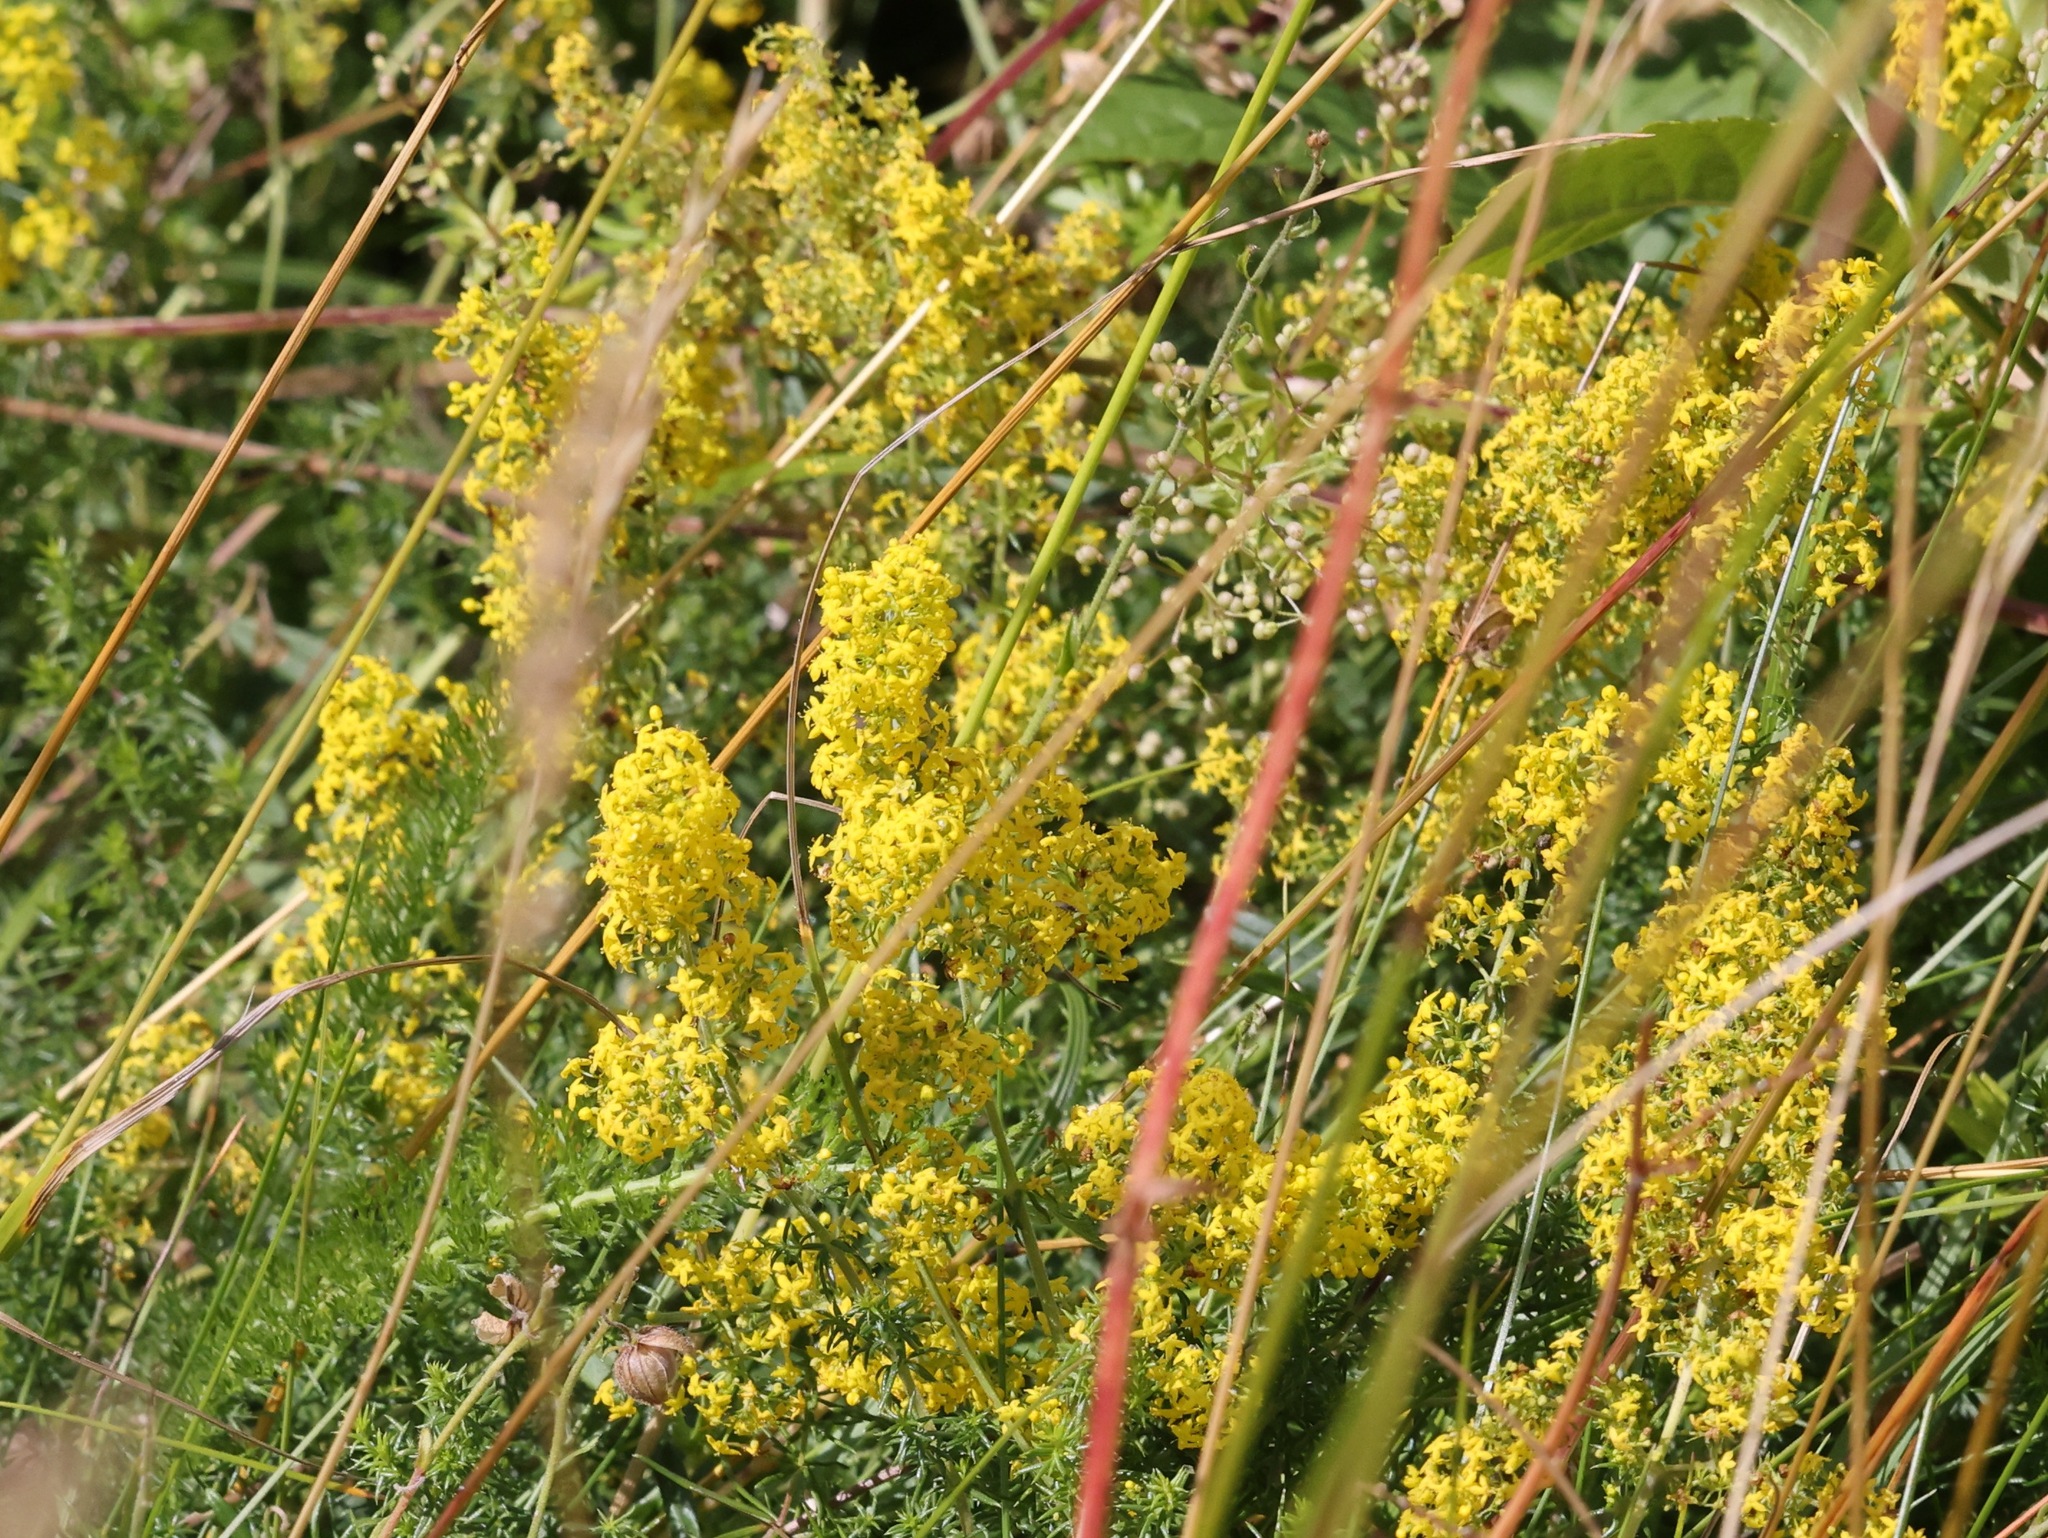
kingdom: Plantae
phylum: Tracheophyta
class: Magnoliopsida
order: Gentianales
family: Rubiaceae
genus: Galium
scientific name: Galium verum
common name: Lady's bedstraw
